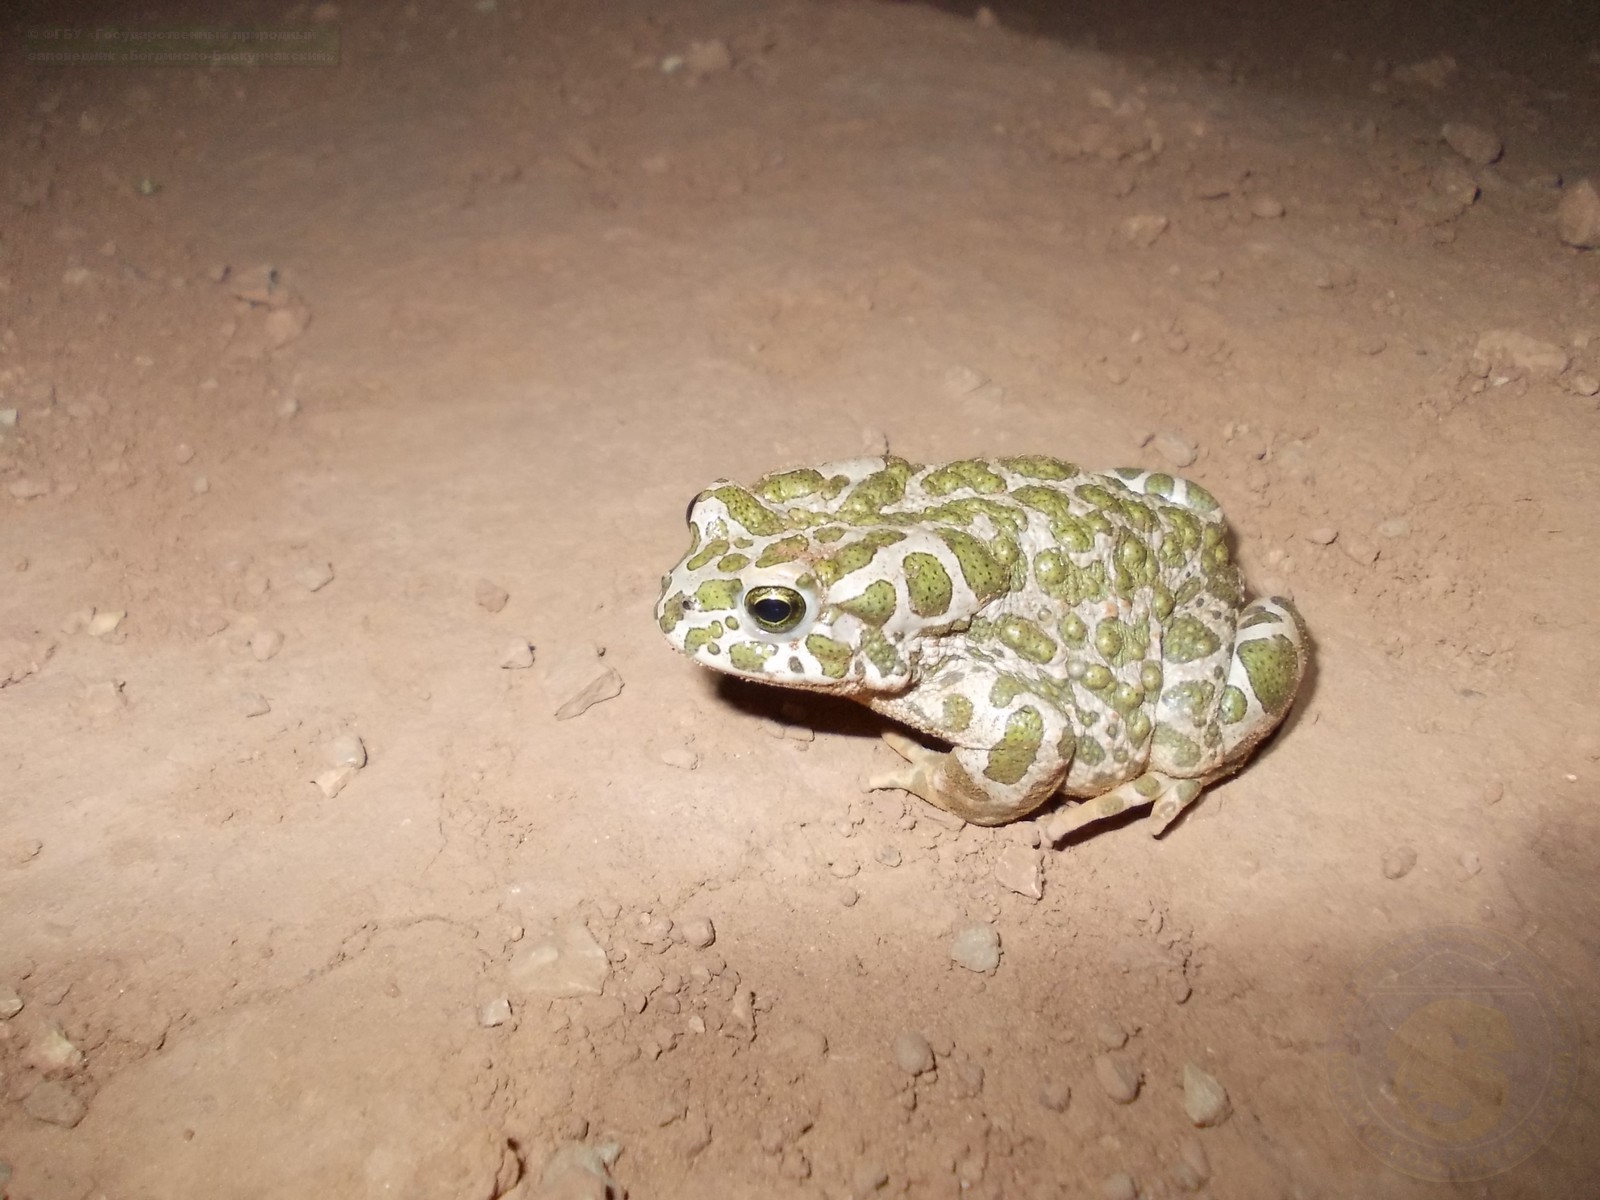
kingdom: Animalia
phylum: Chordata
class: Amphibia
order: Anura
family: Bufonidae
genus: Bufotes
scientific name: Bufotes viridis
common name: European green toad
